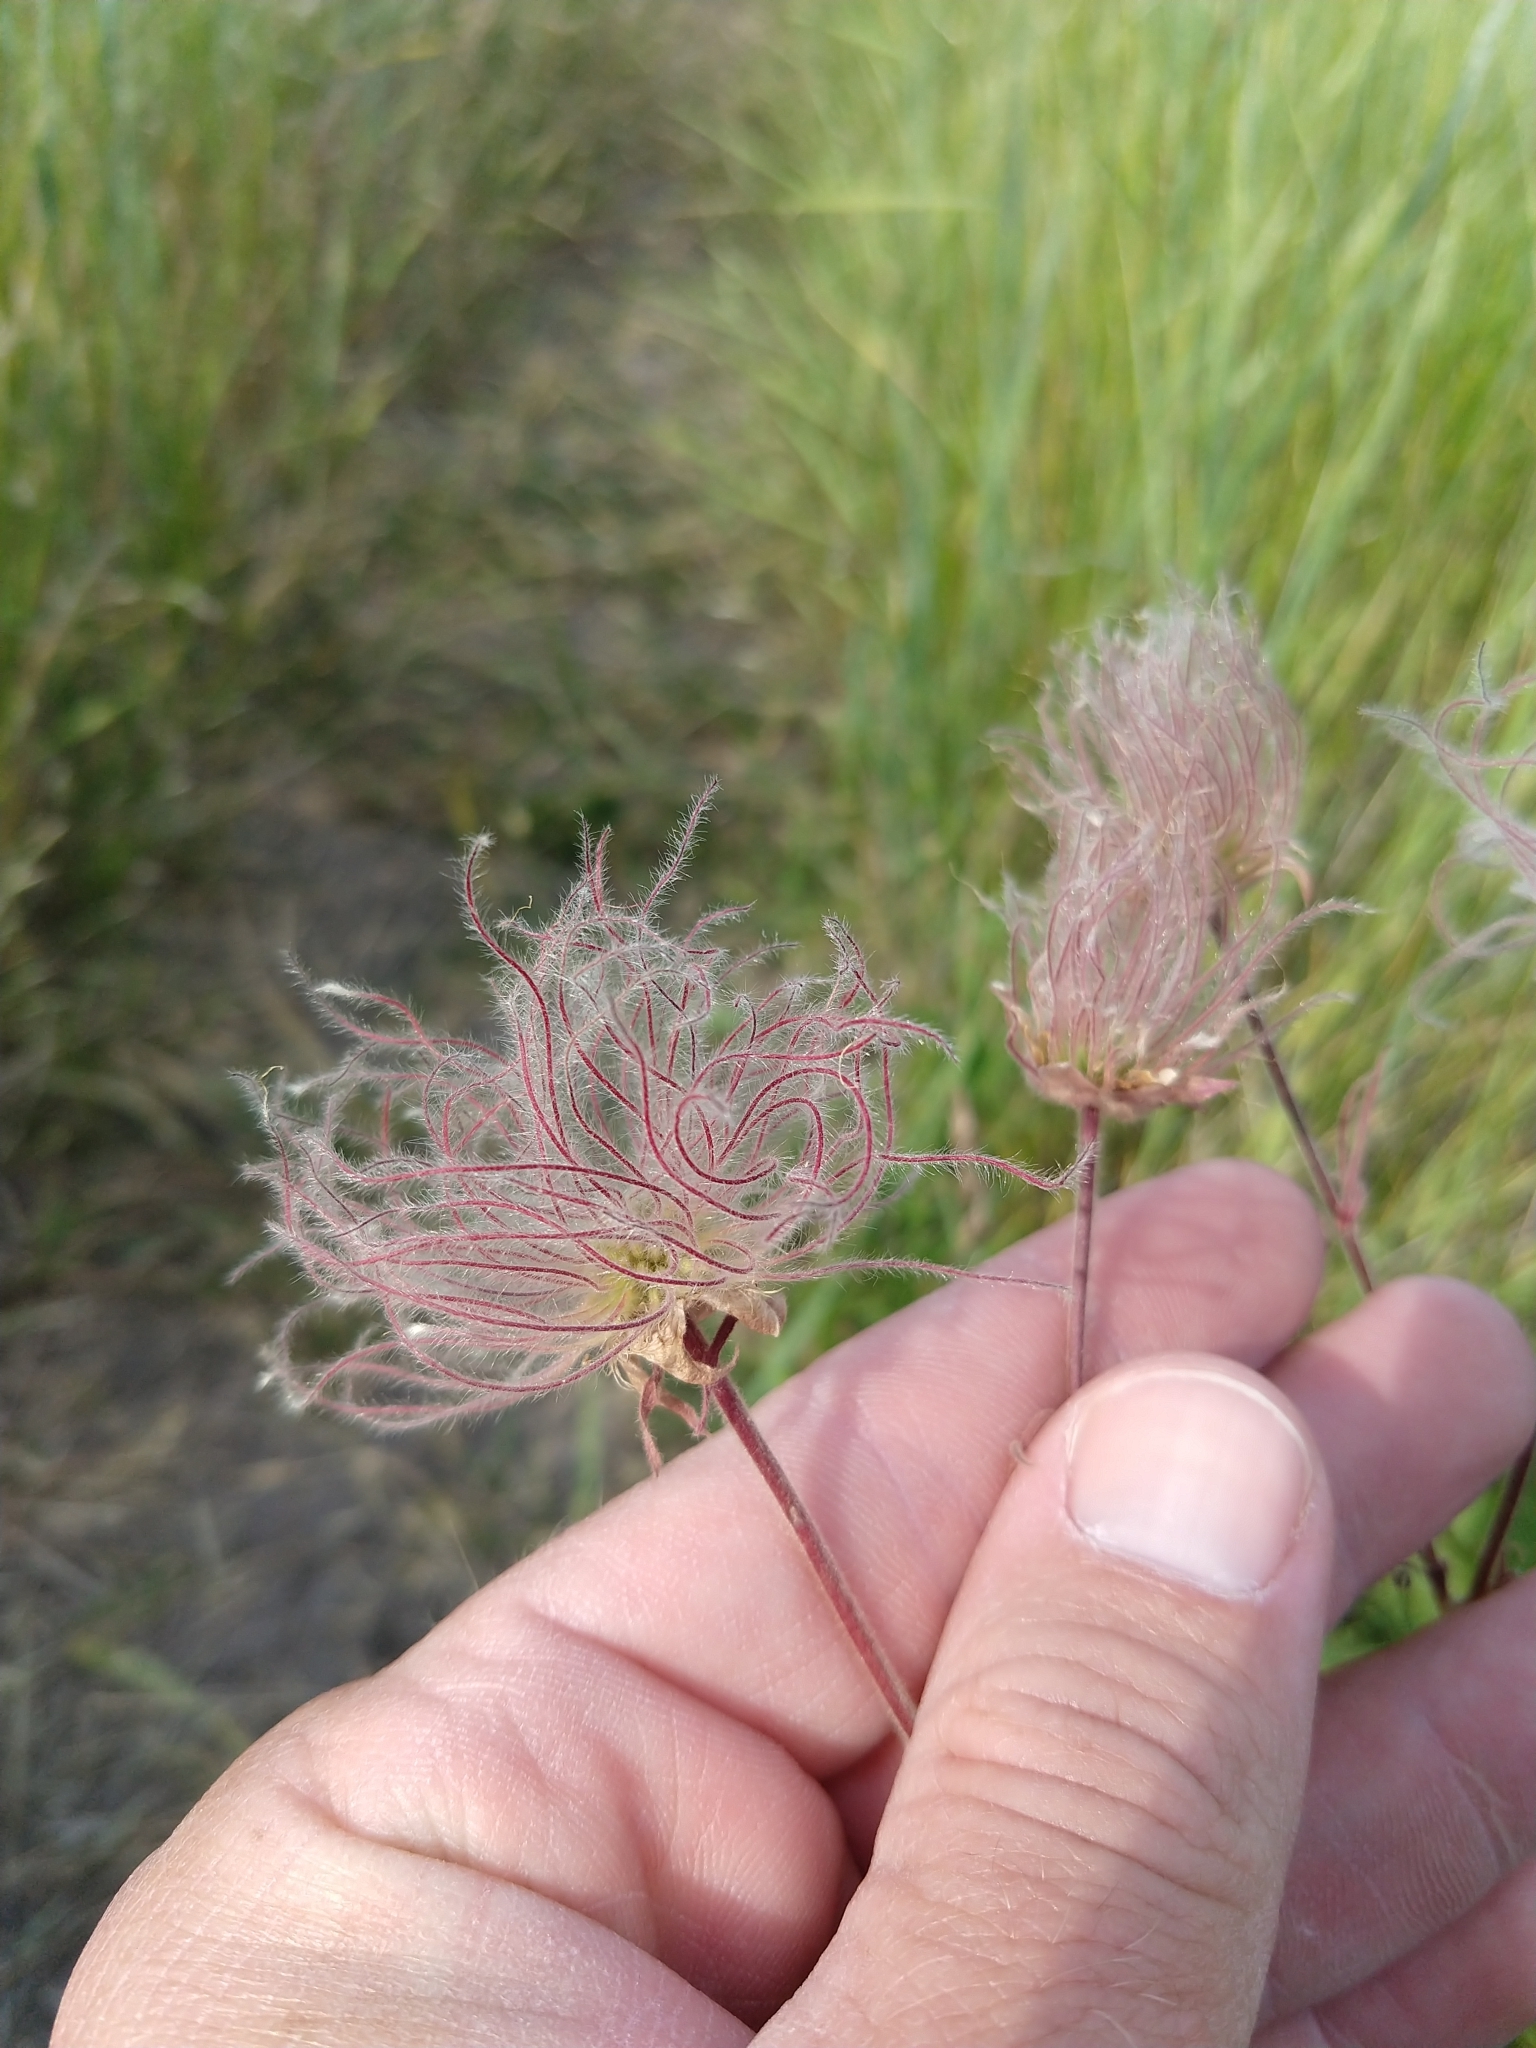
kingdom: Plantae
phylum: Tracheophyta
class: Magnoliopsida
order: Rosales
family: Rosaceae
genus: Geum
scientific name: Geum triflorum
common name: Old man's whiskers
